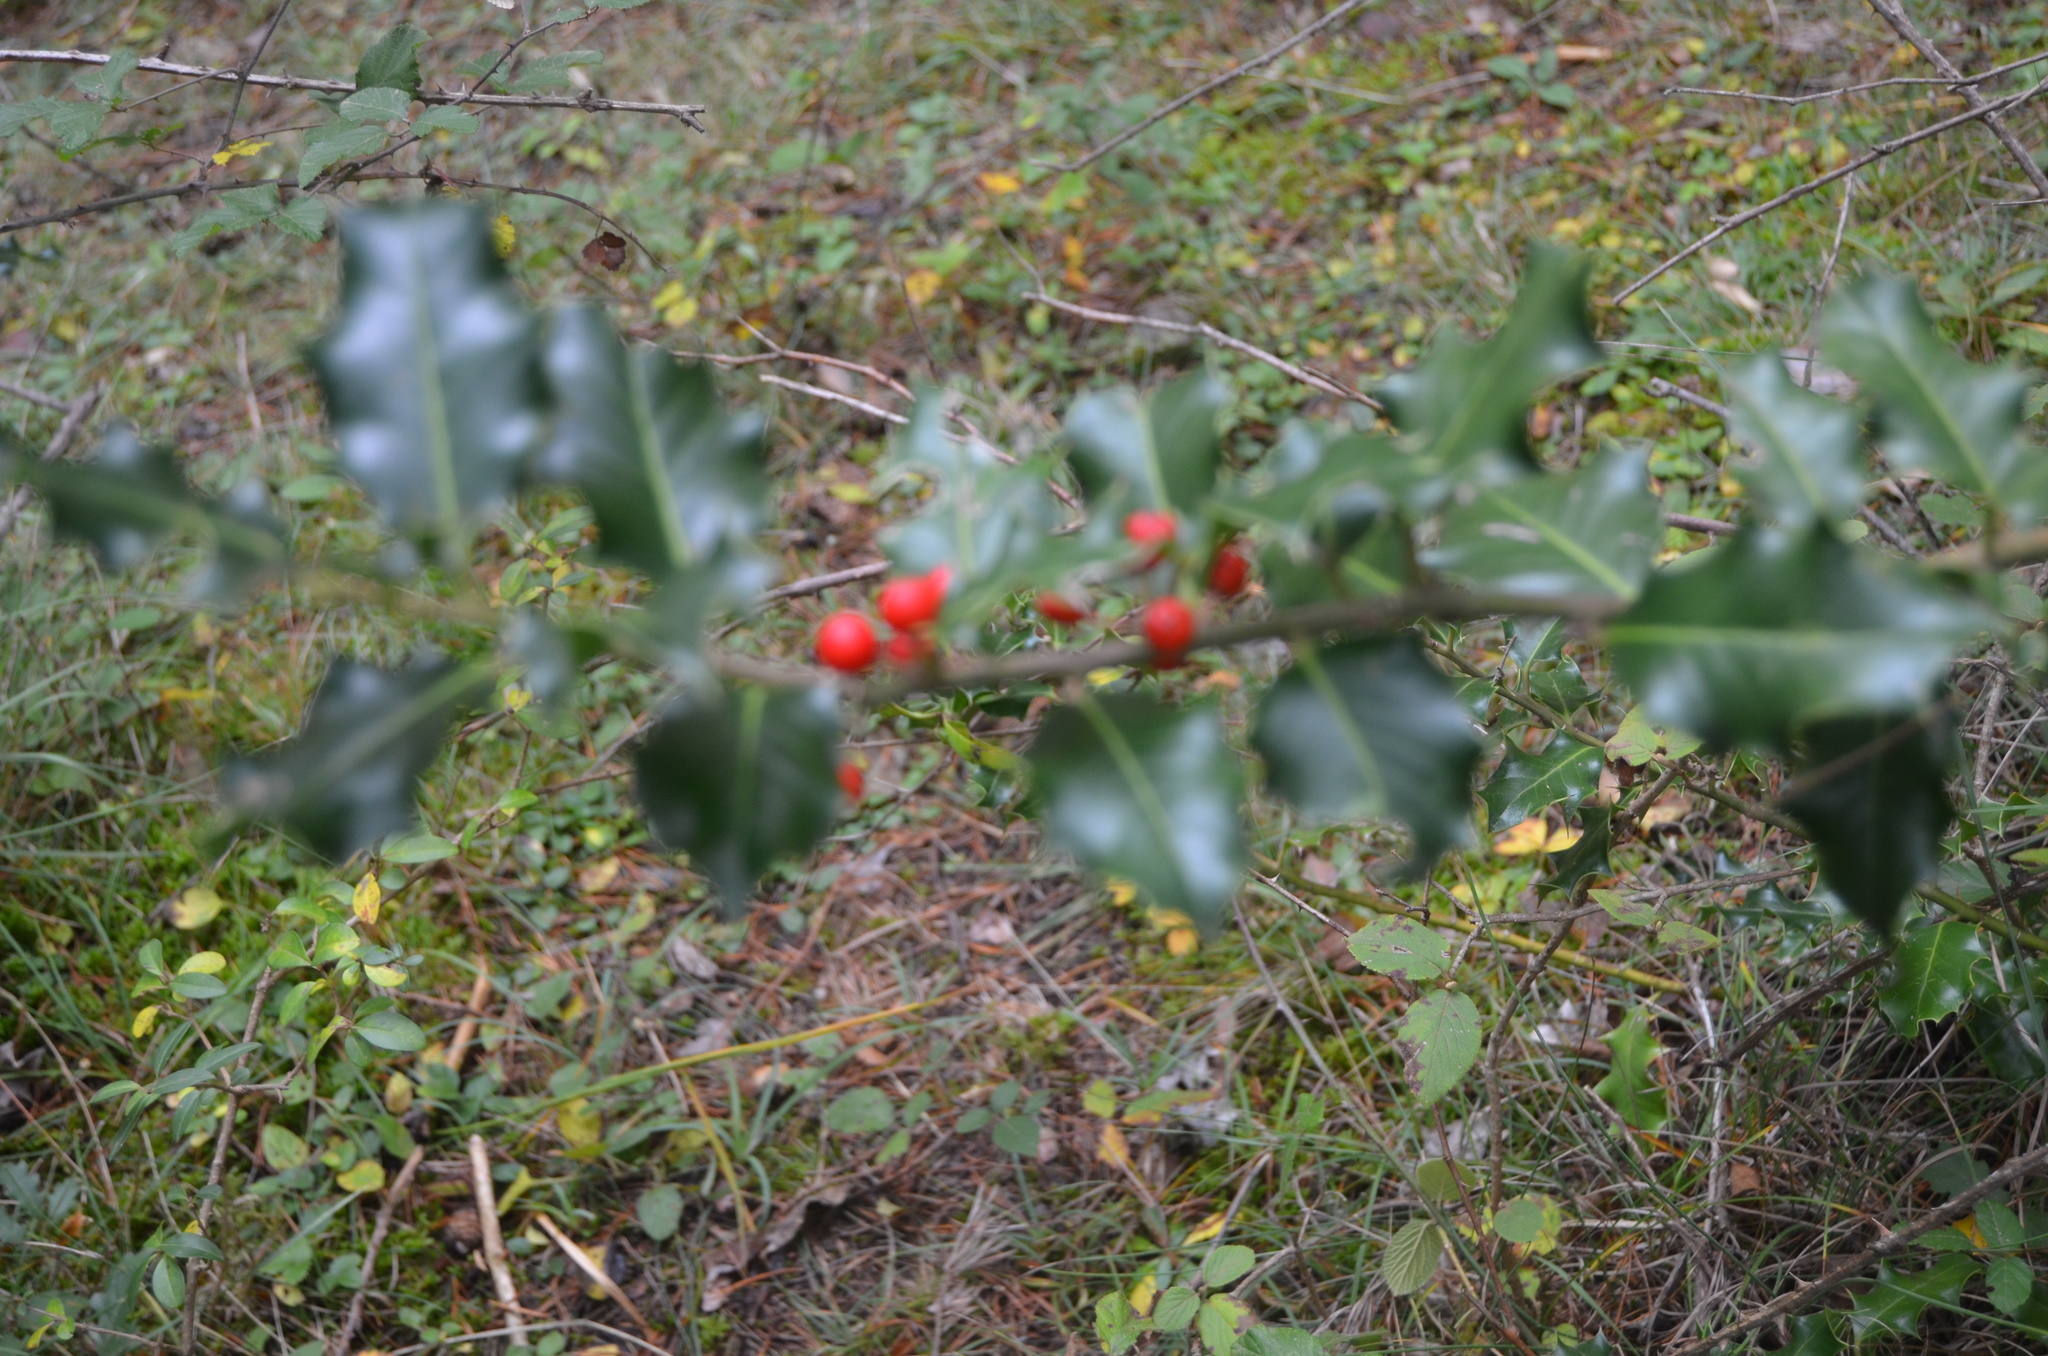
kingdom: Plantae
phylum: Tracheophyta
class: Magnoliopsida
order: Aquifoliales
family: Aquifoliaceae
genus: Ilex
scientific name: Ilex aquifolium
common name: English holly
